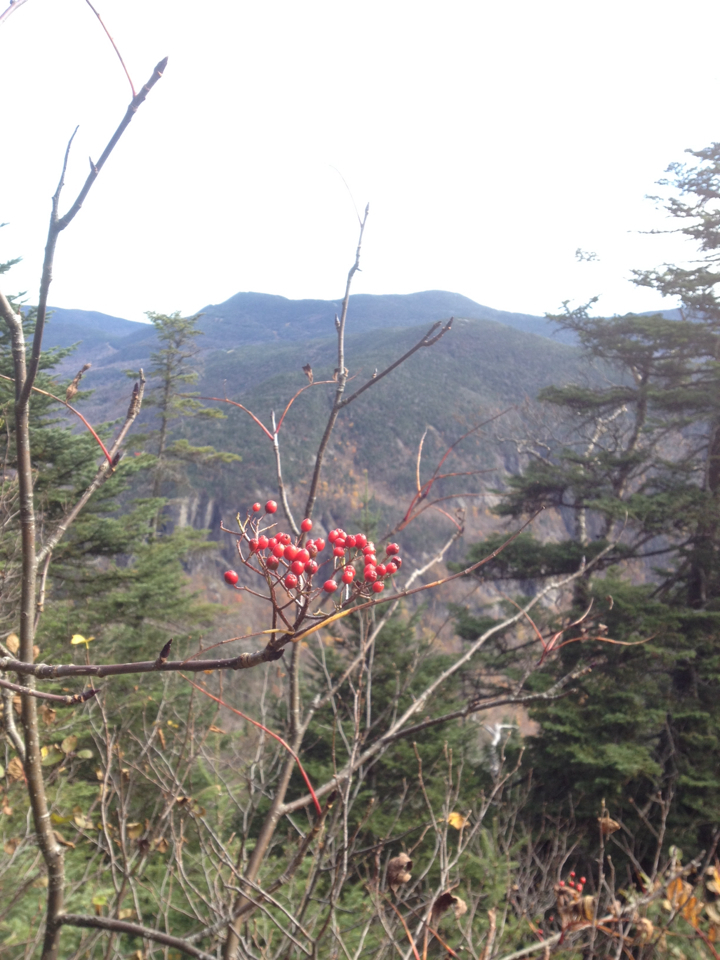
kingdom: Plantae
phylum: Tracheophyta
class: Magnoliopsida
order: Rosales
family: Rosaceae
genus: Sorbus
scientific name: Sorbus americana
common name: American mountain-ash
